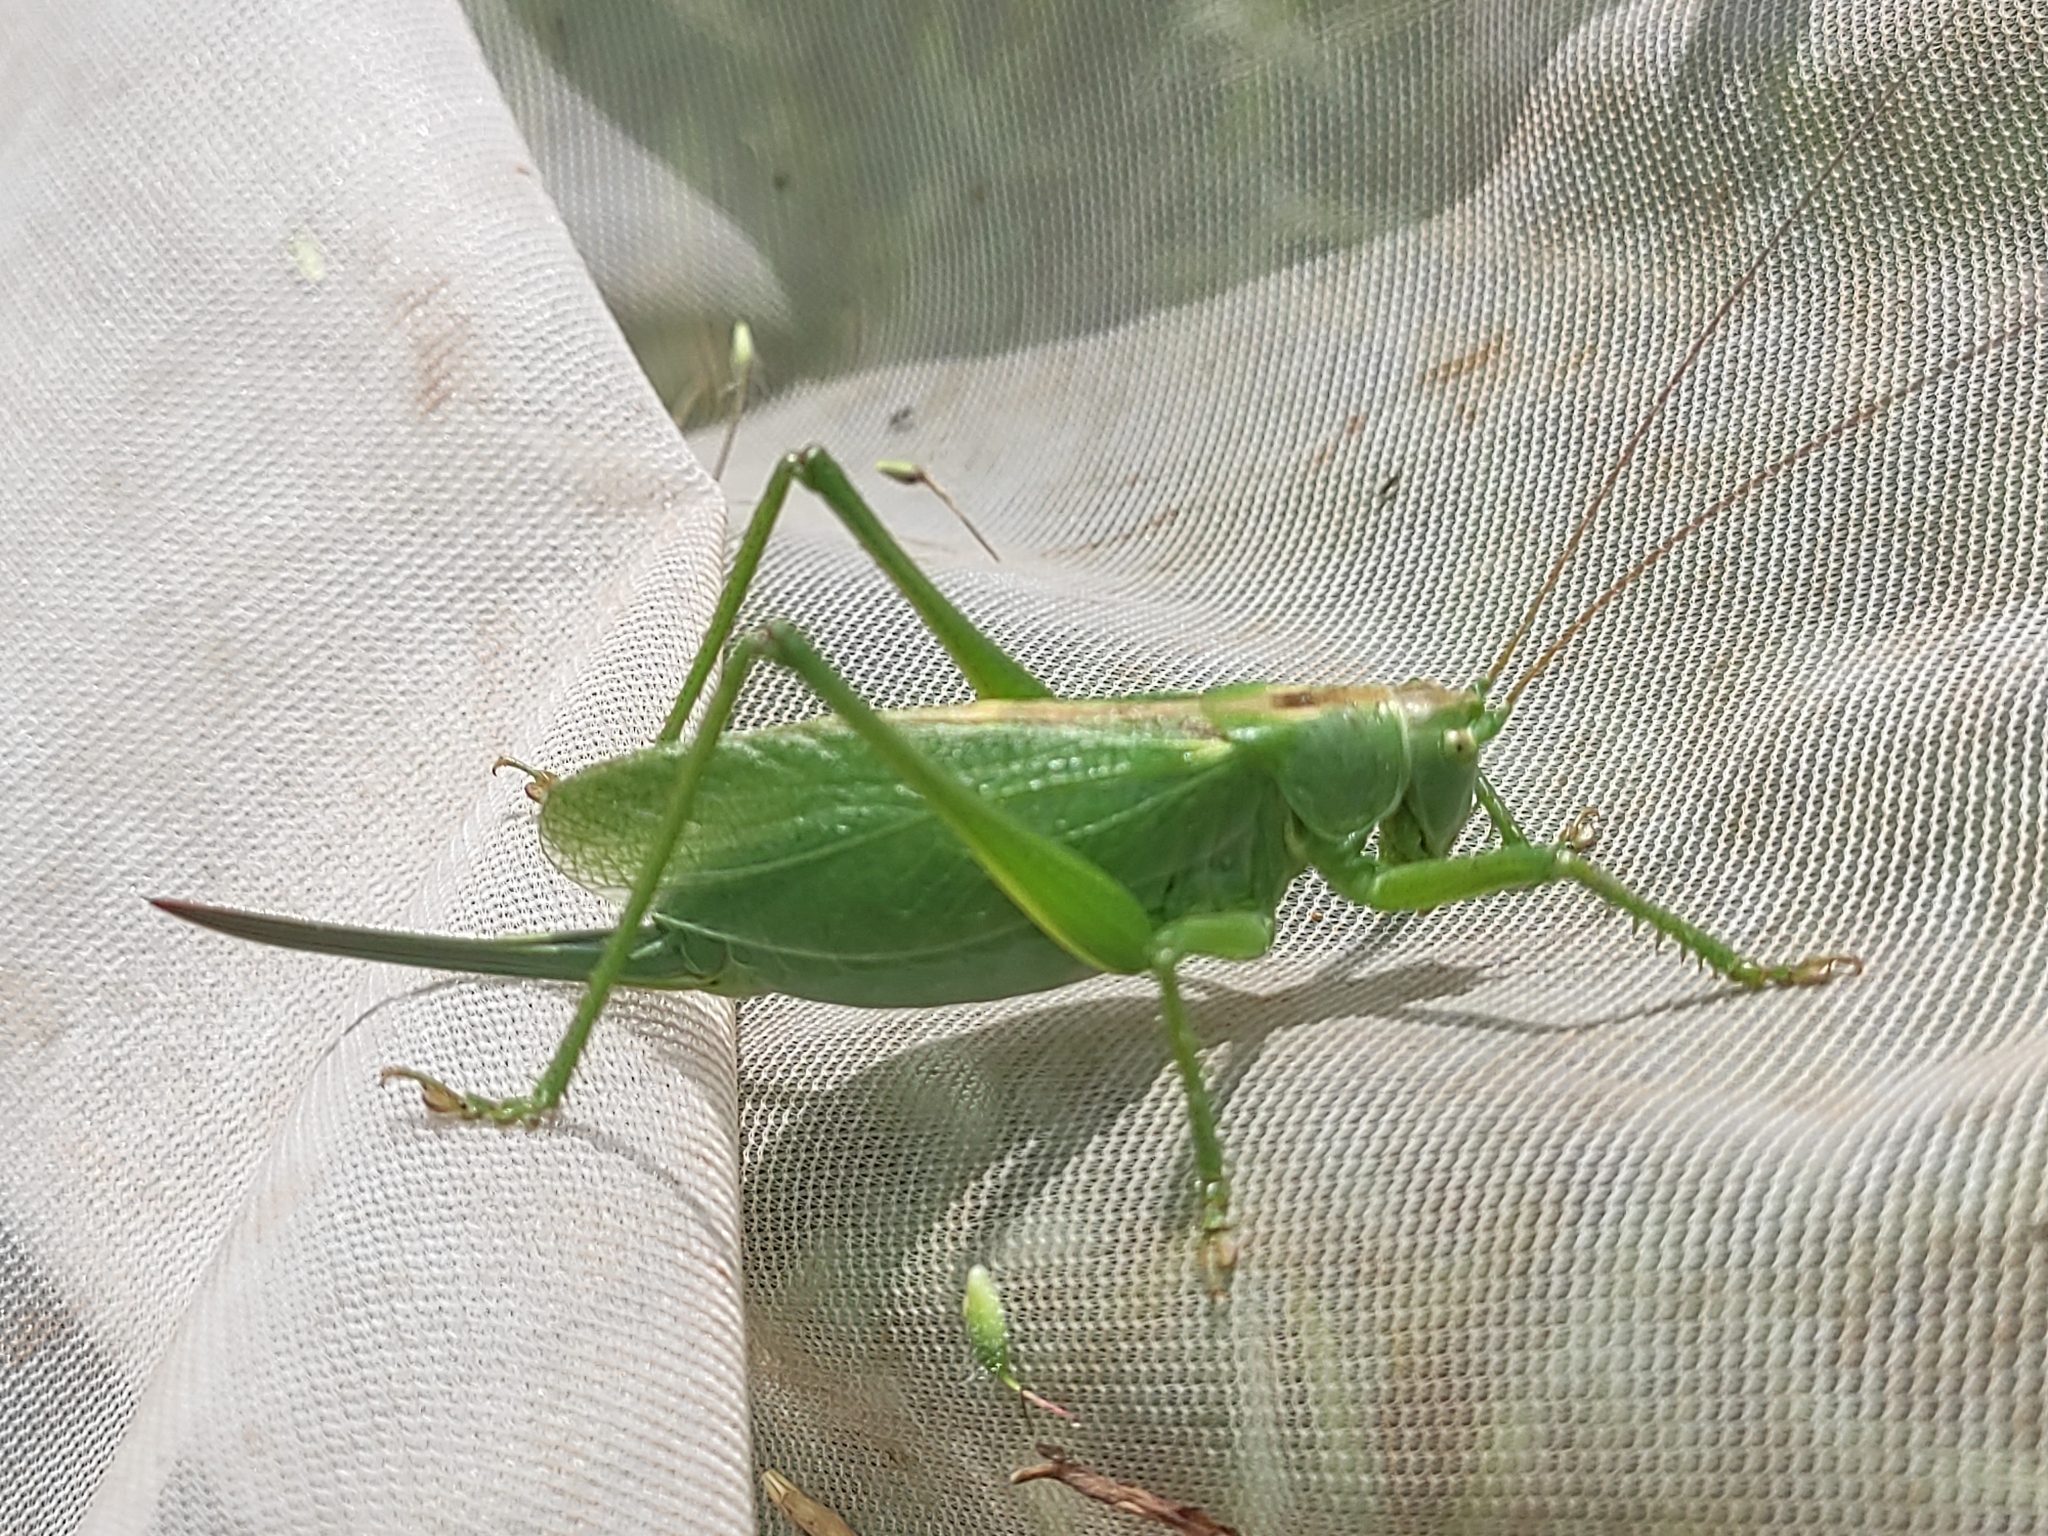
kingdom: Animalia
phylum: Arthropoda
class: Insecta
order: Orthoptera
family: Tettigoniidae
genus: Tettigonia
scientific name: Tettigonia cantans
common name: Upland green bush-cricket
